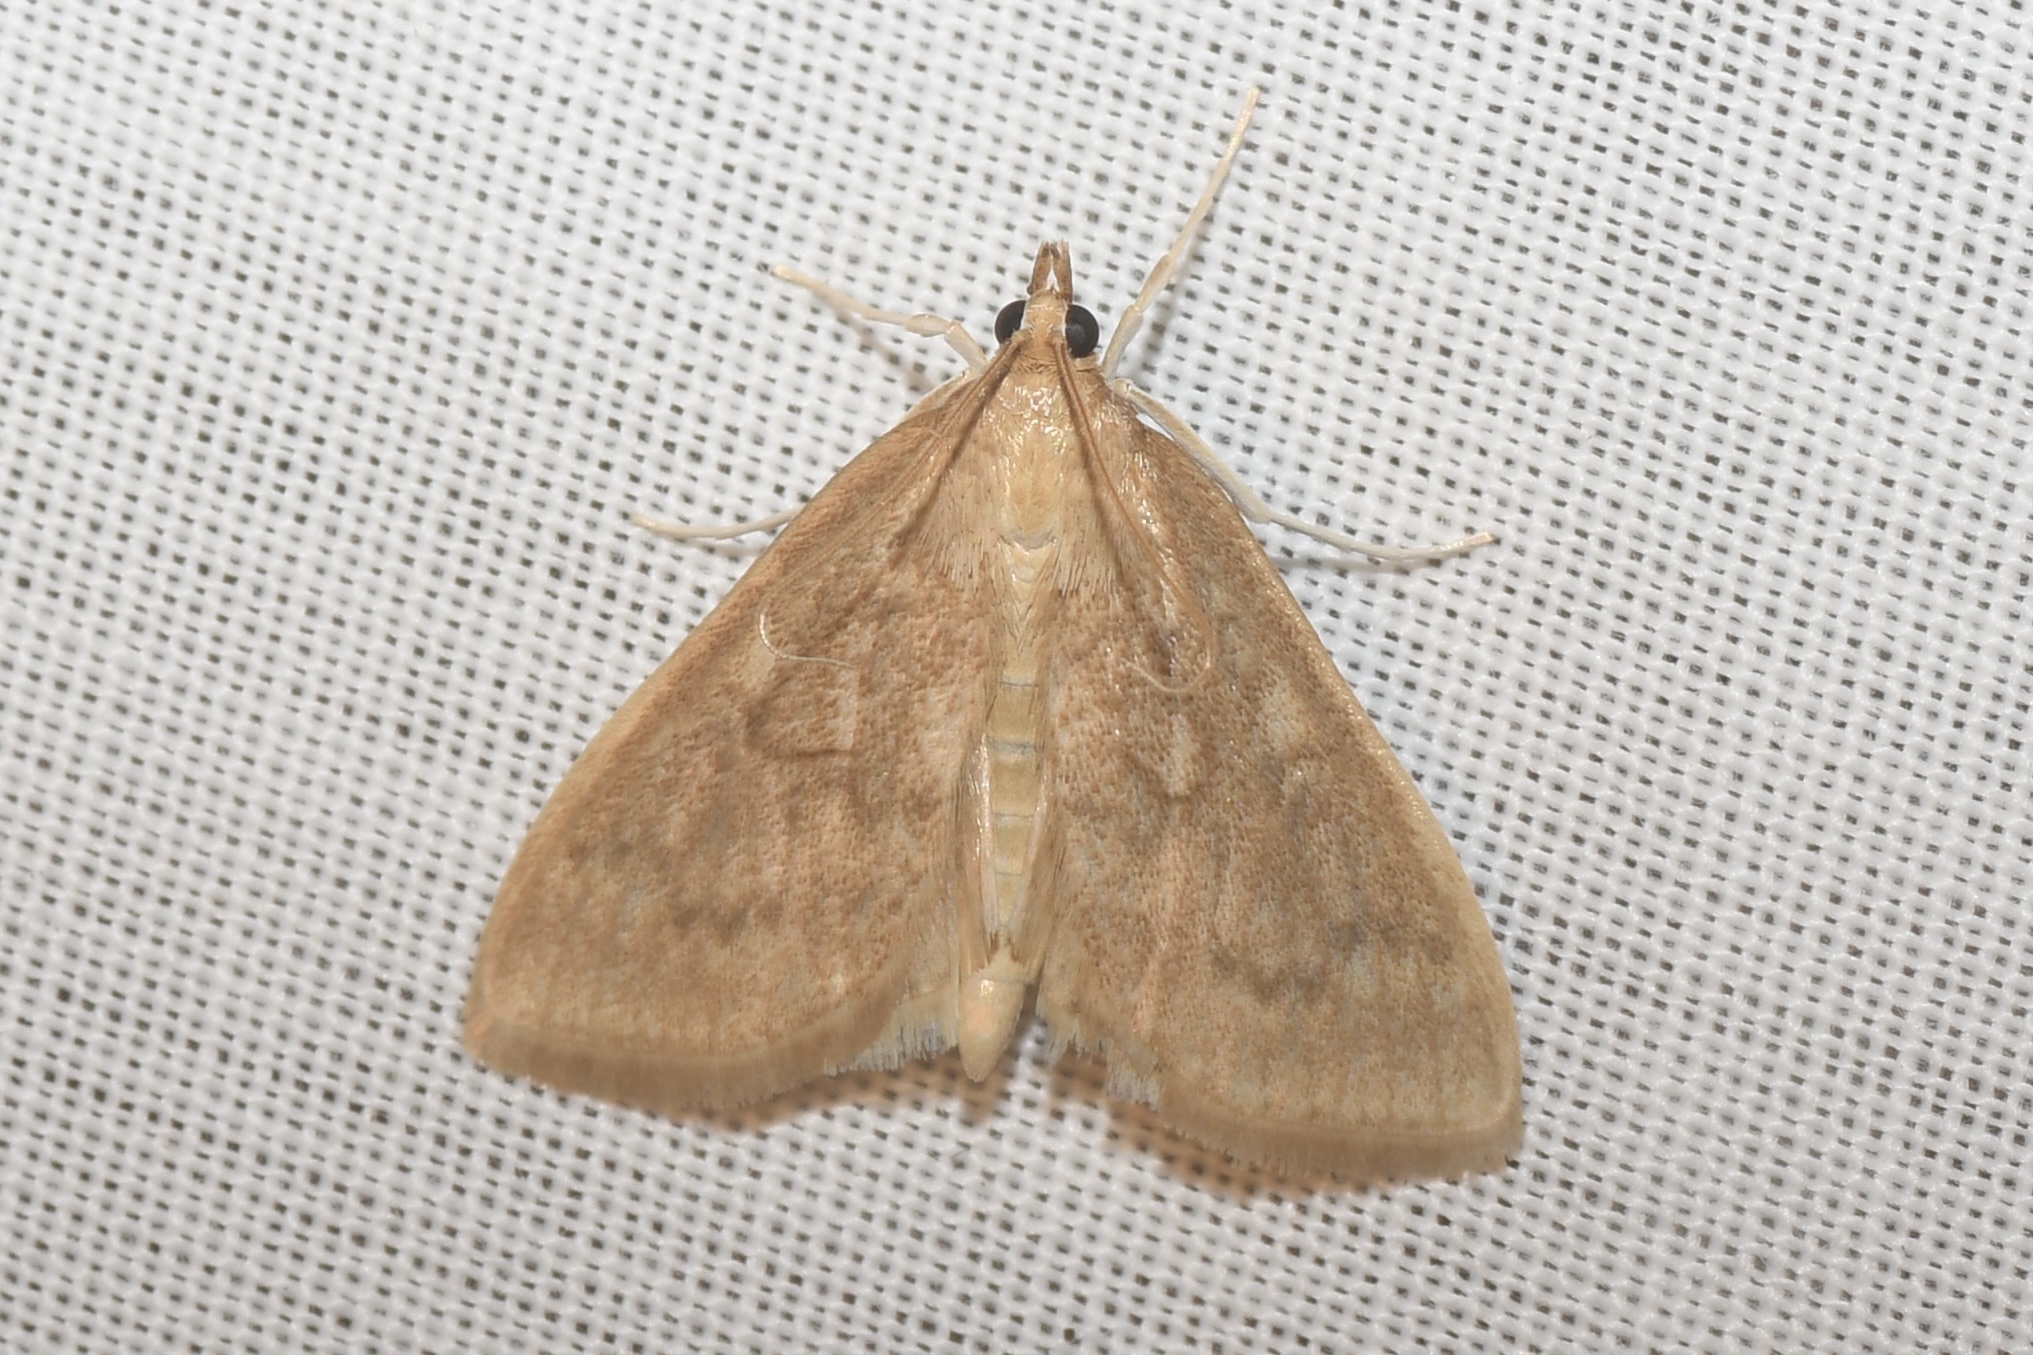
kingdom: Animalia
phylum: Arthropoda
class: Insecta
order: Lepidoptera
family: Crambidae
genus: Anania
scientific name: Anania Framinghamia helvalis
